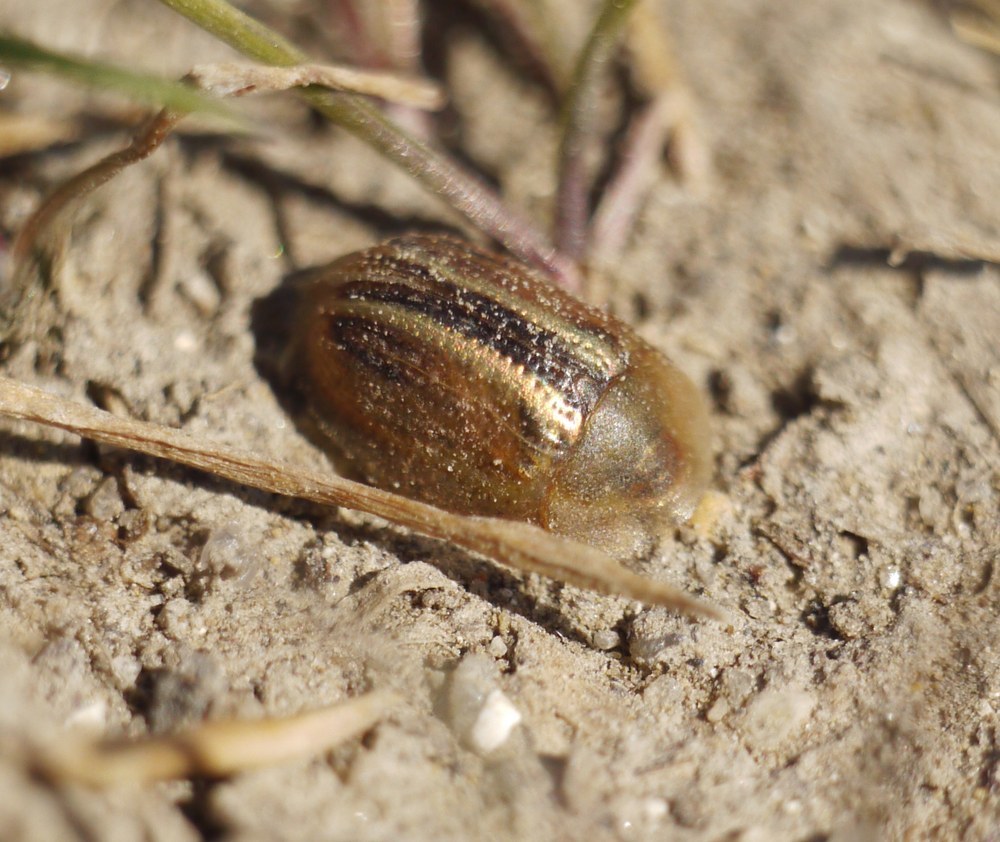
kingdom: Animalia
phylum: Arthropoda
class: Insecta
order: Coleoptera
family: Chrysomelidae
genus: Cassida
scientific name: Cassida nobilis
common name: Leaf beetle
